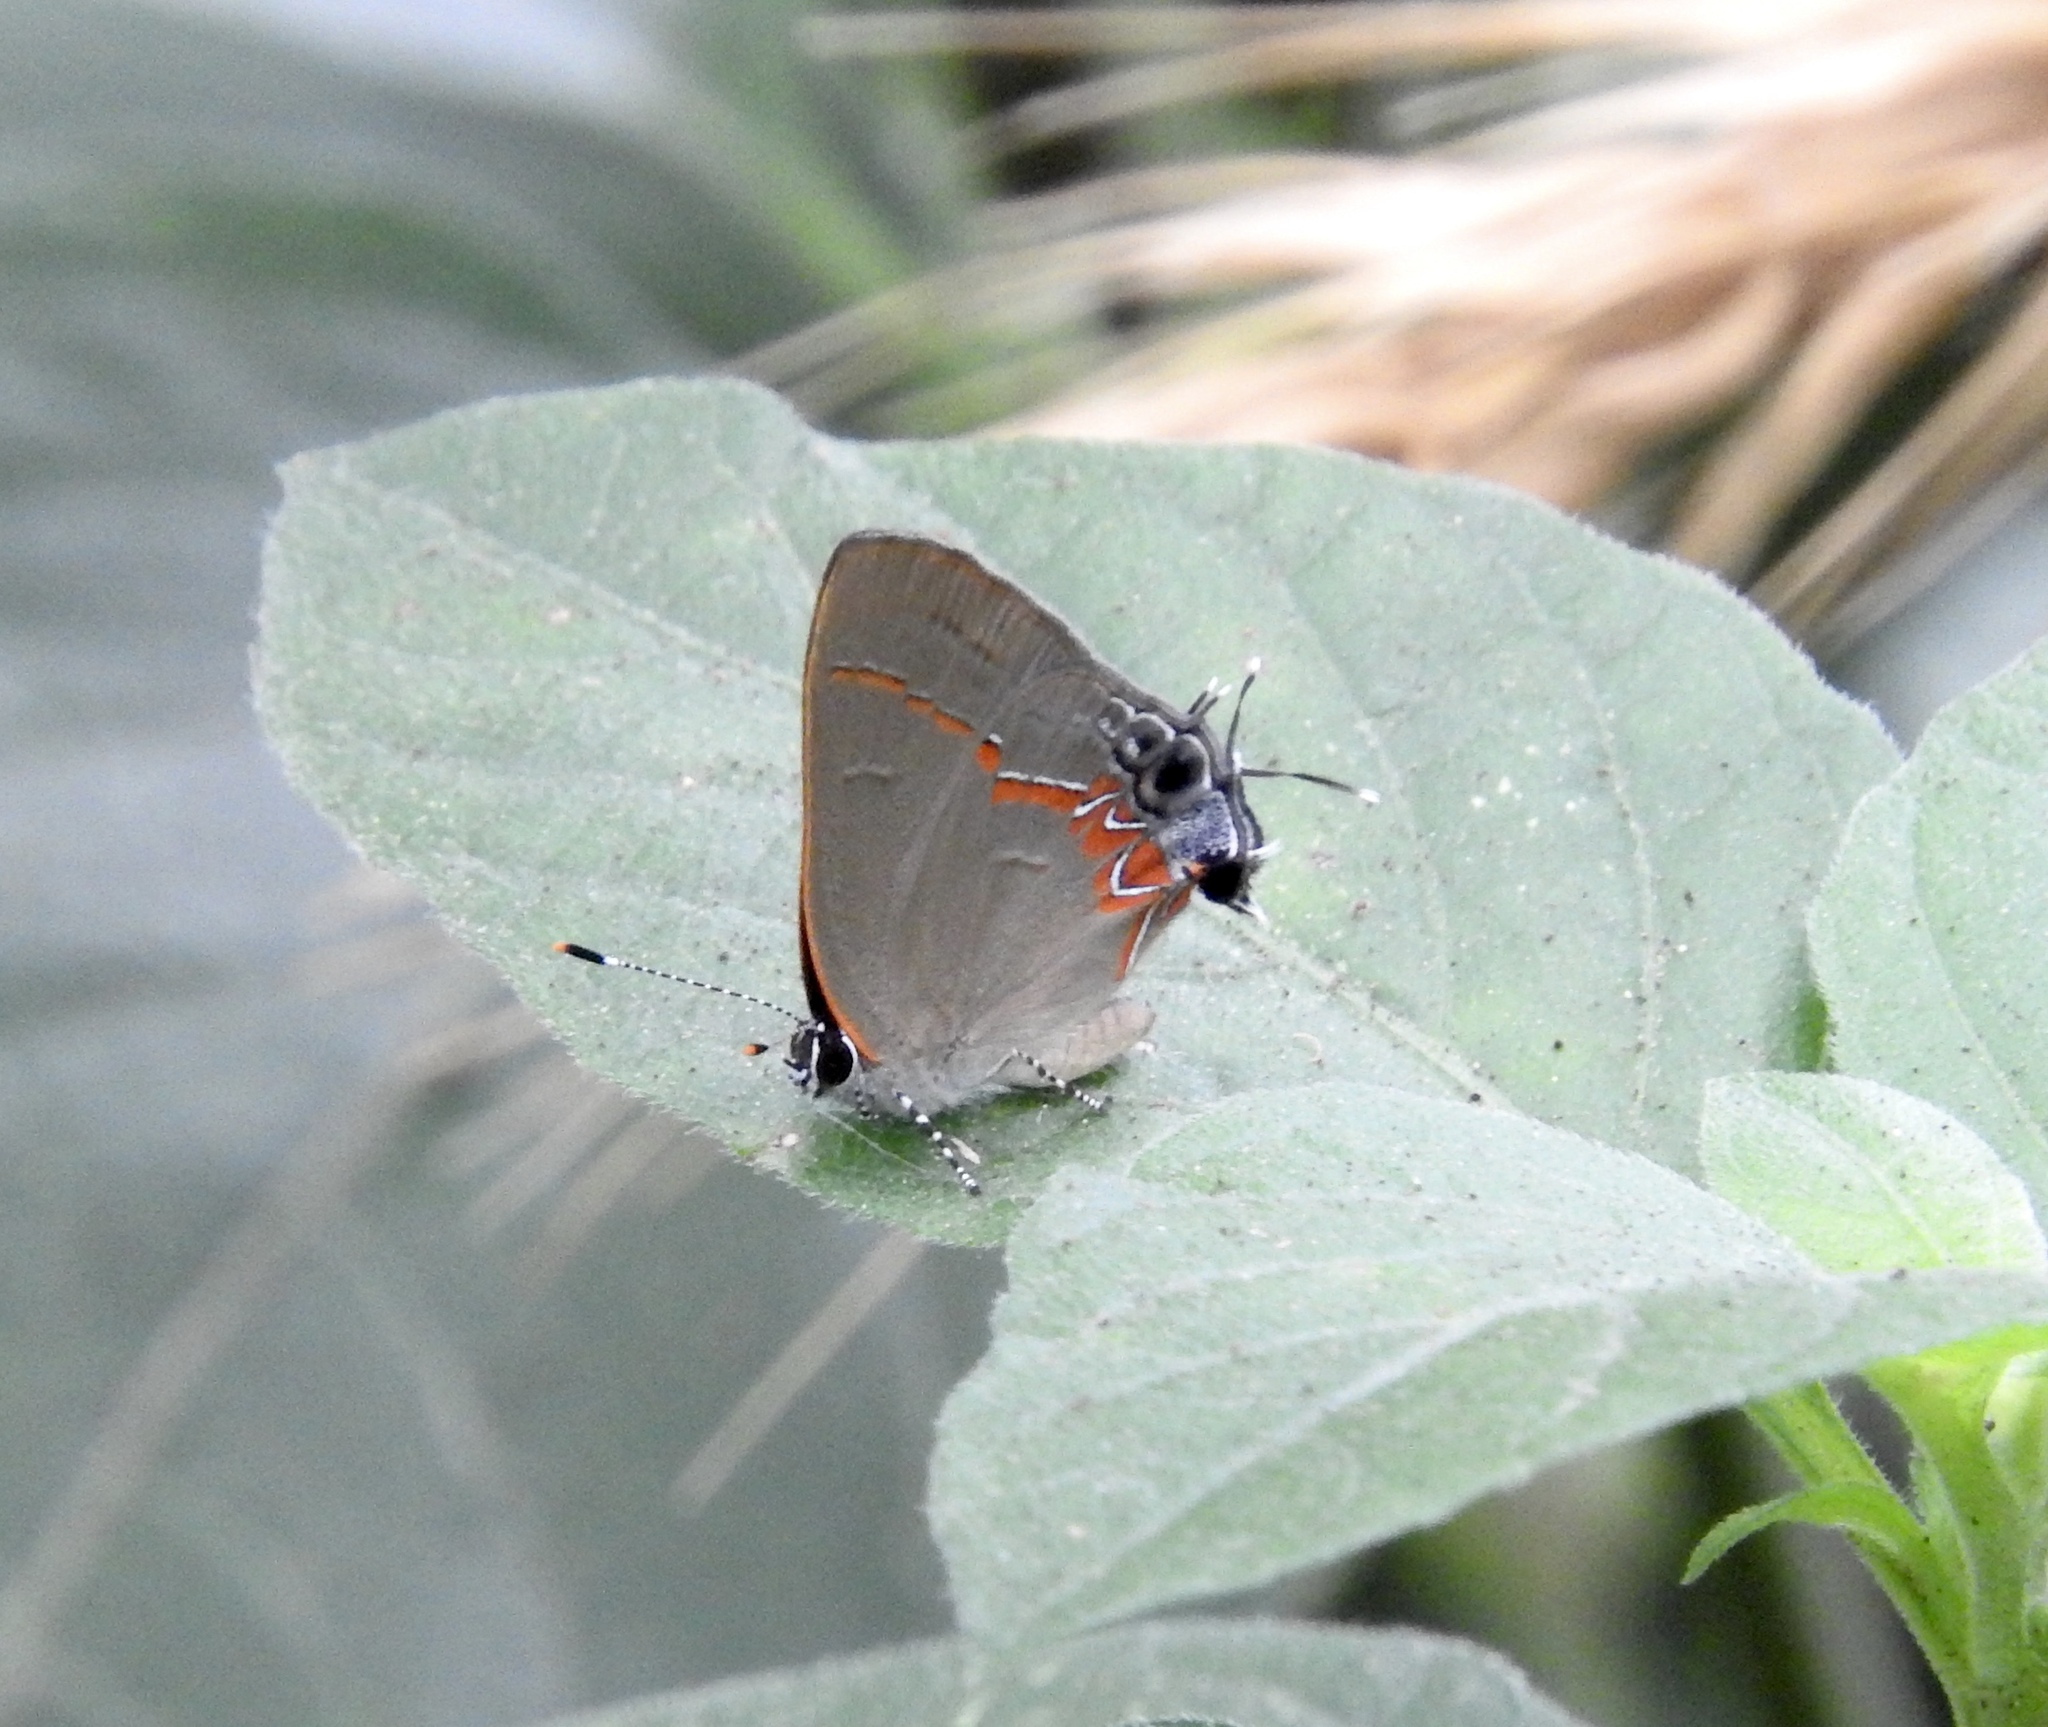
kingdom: Animalia
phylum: Arthropoda
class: Insecta
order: Lepidoptera
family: Lycaenidae
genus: Calycopis
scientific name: Calycopis cecrops
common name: Red-banded hairstreak
